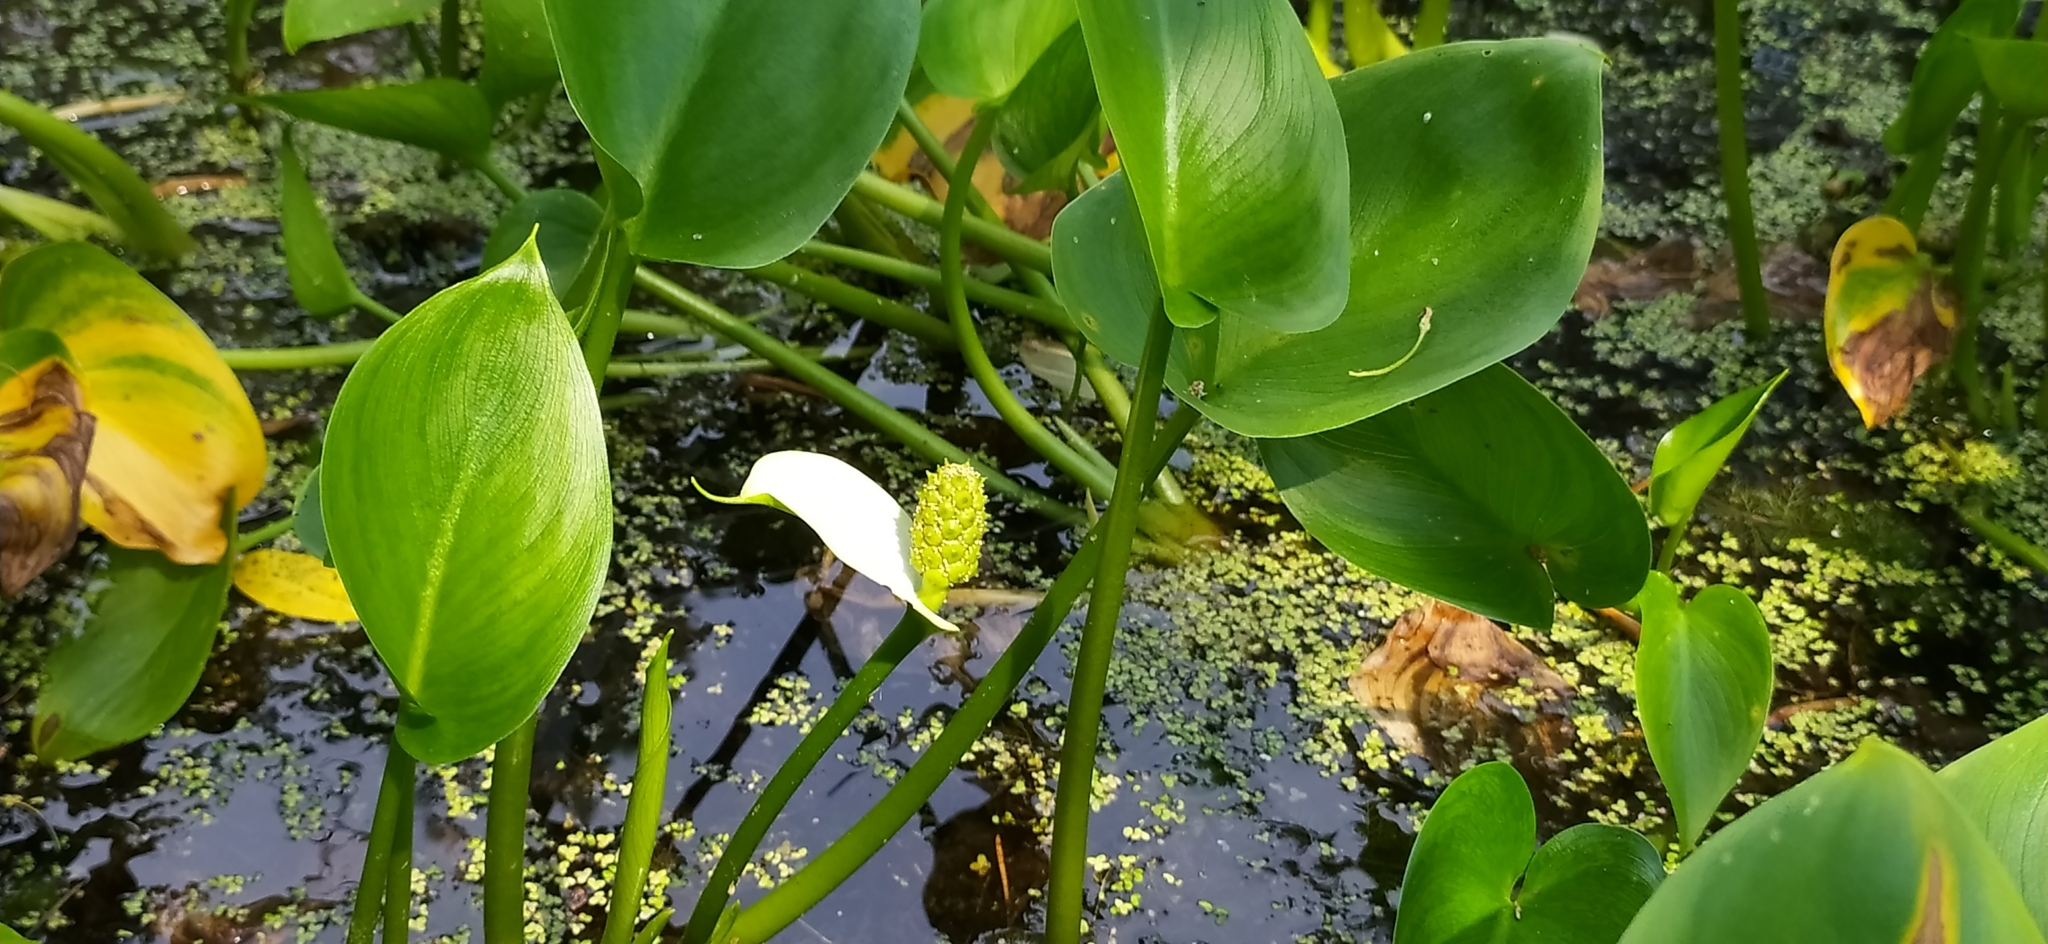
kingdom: Plantae
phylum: Tracheophyta
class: Liliopsida
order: Alismatales
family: Araceae
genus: Calla
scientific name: Calla palustris
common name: Bog arum
